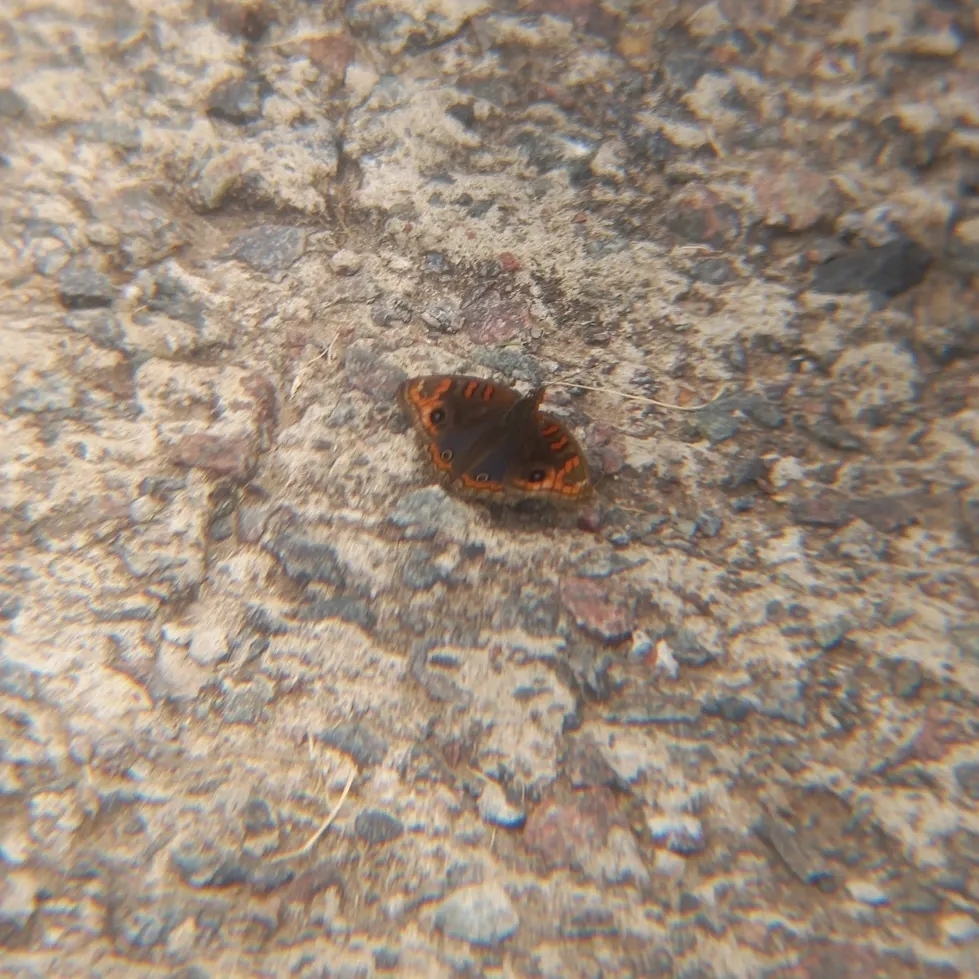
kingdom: Animalia
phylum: Arthropoda
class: Insecta
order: Lepidoptera
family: Nymphalidae
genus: Junonia
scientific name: Junonia lavinia
